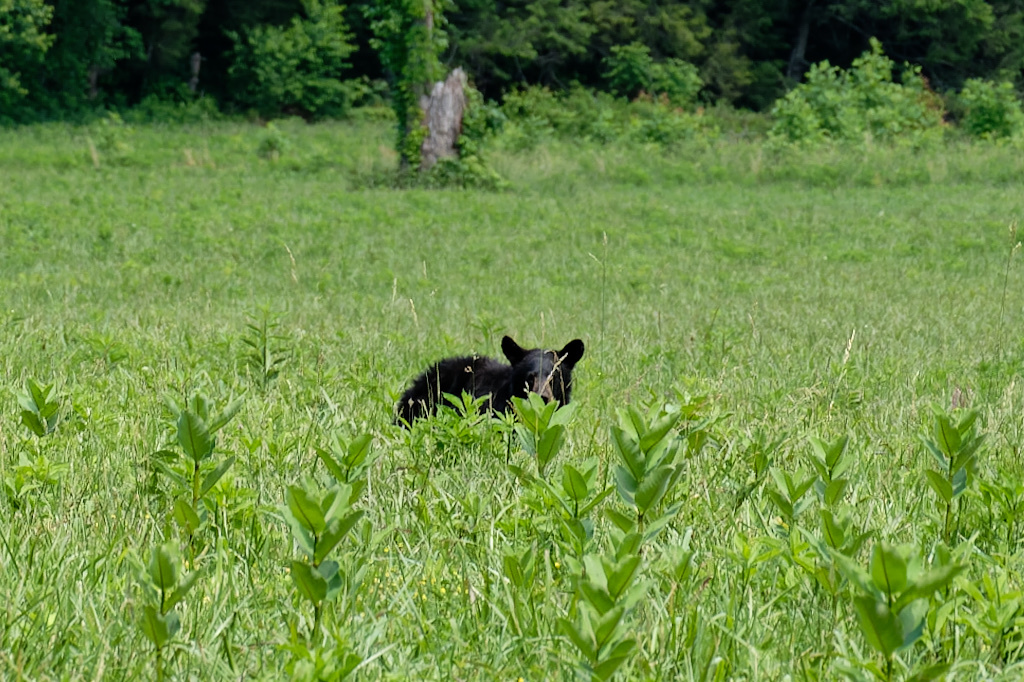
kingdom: Animalia
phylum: Chordata
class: Mammalia
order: Carnivora
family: Ursidae
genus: Ursus
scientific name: Ursus americanus
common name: American black bear
